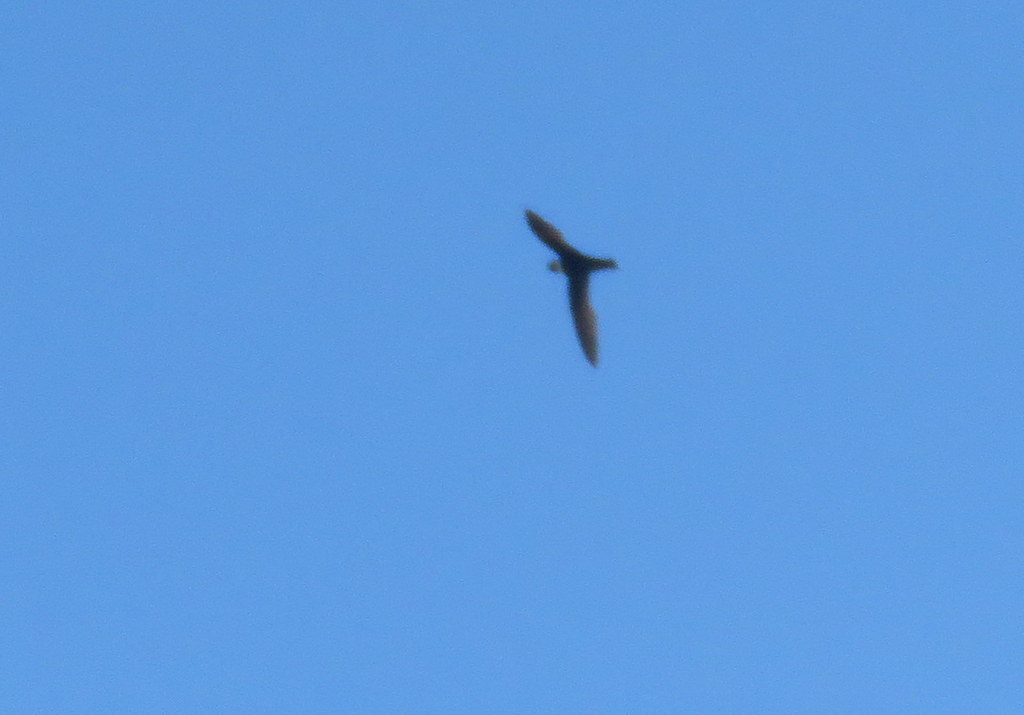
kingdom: Animalia
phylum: Chordata
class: Aves
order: Apodiformes
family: Apodidae
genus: Streptoprocne
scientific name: Streptoprocne zonaris
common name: White-collared swift
